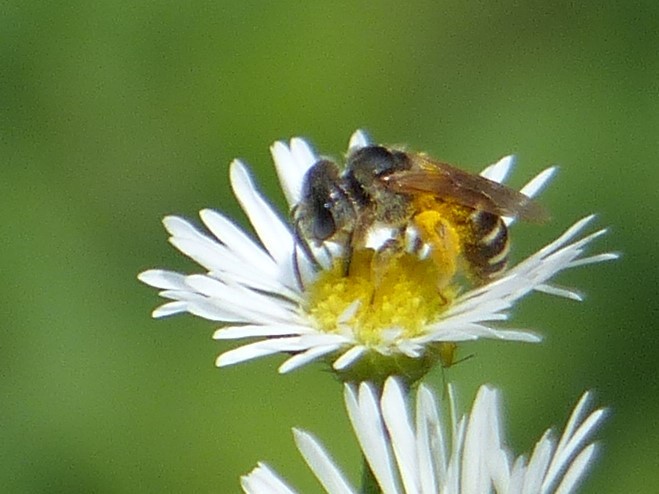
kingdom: Animalia
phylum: Arthropoda
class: Insecta
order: Hymenoptera
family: Halictidae
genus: Halictus
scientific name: Halictus ligatus
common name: Ligated furrow bee
